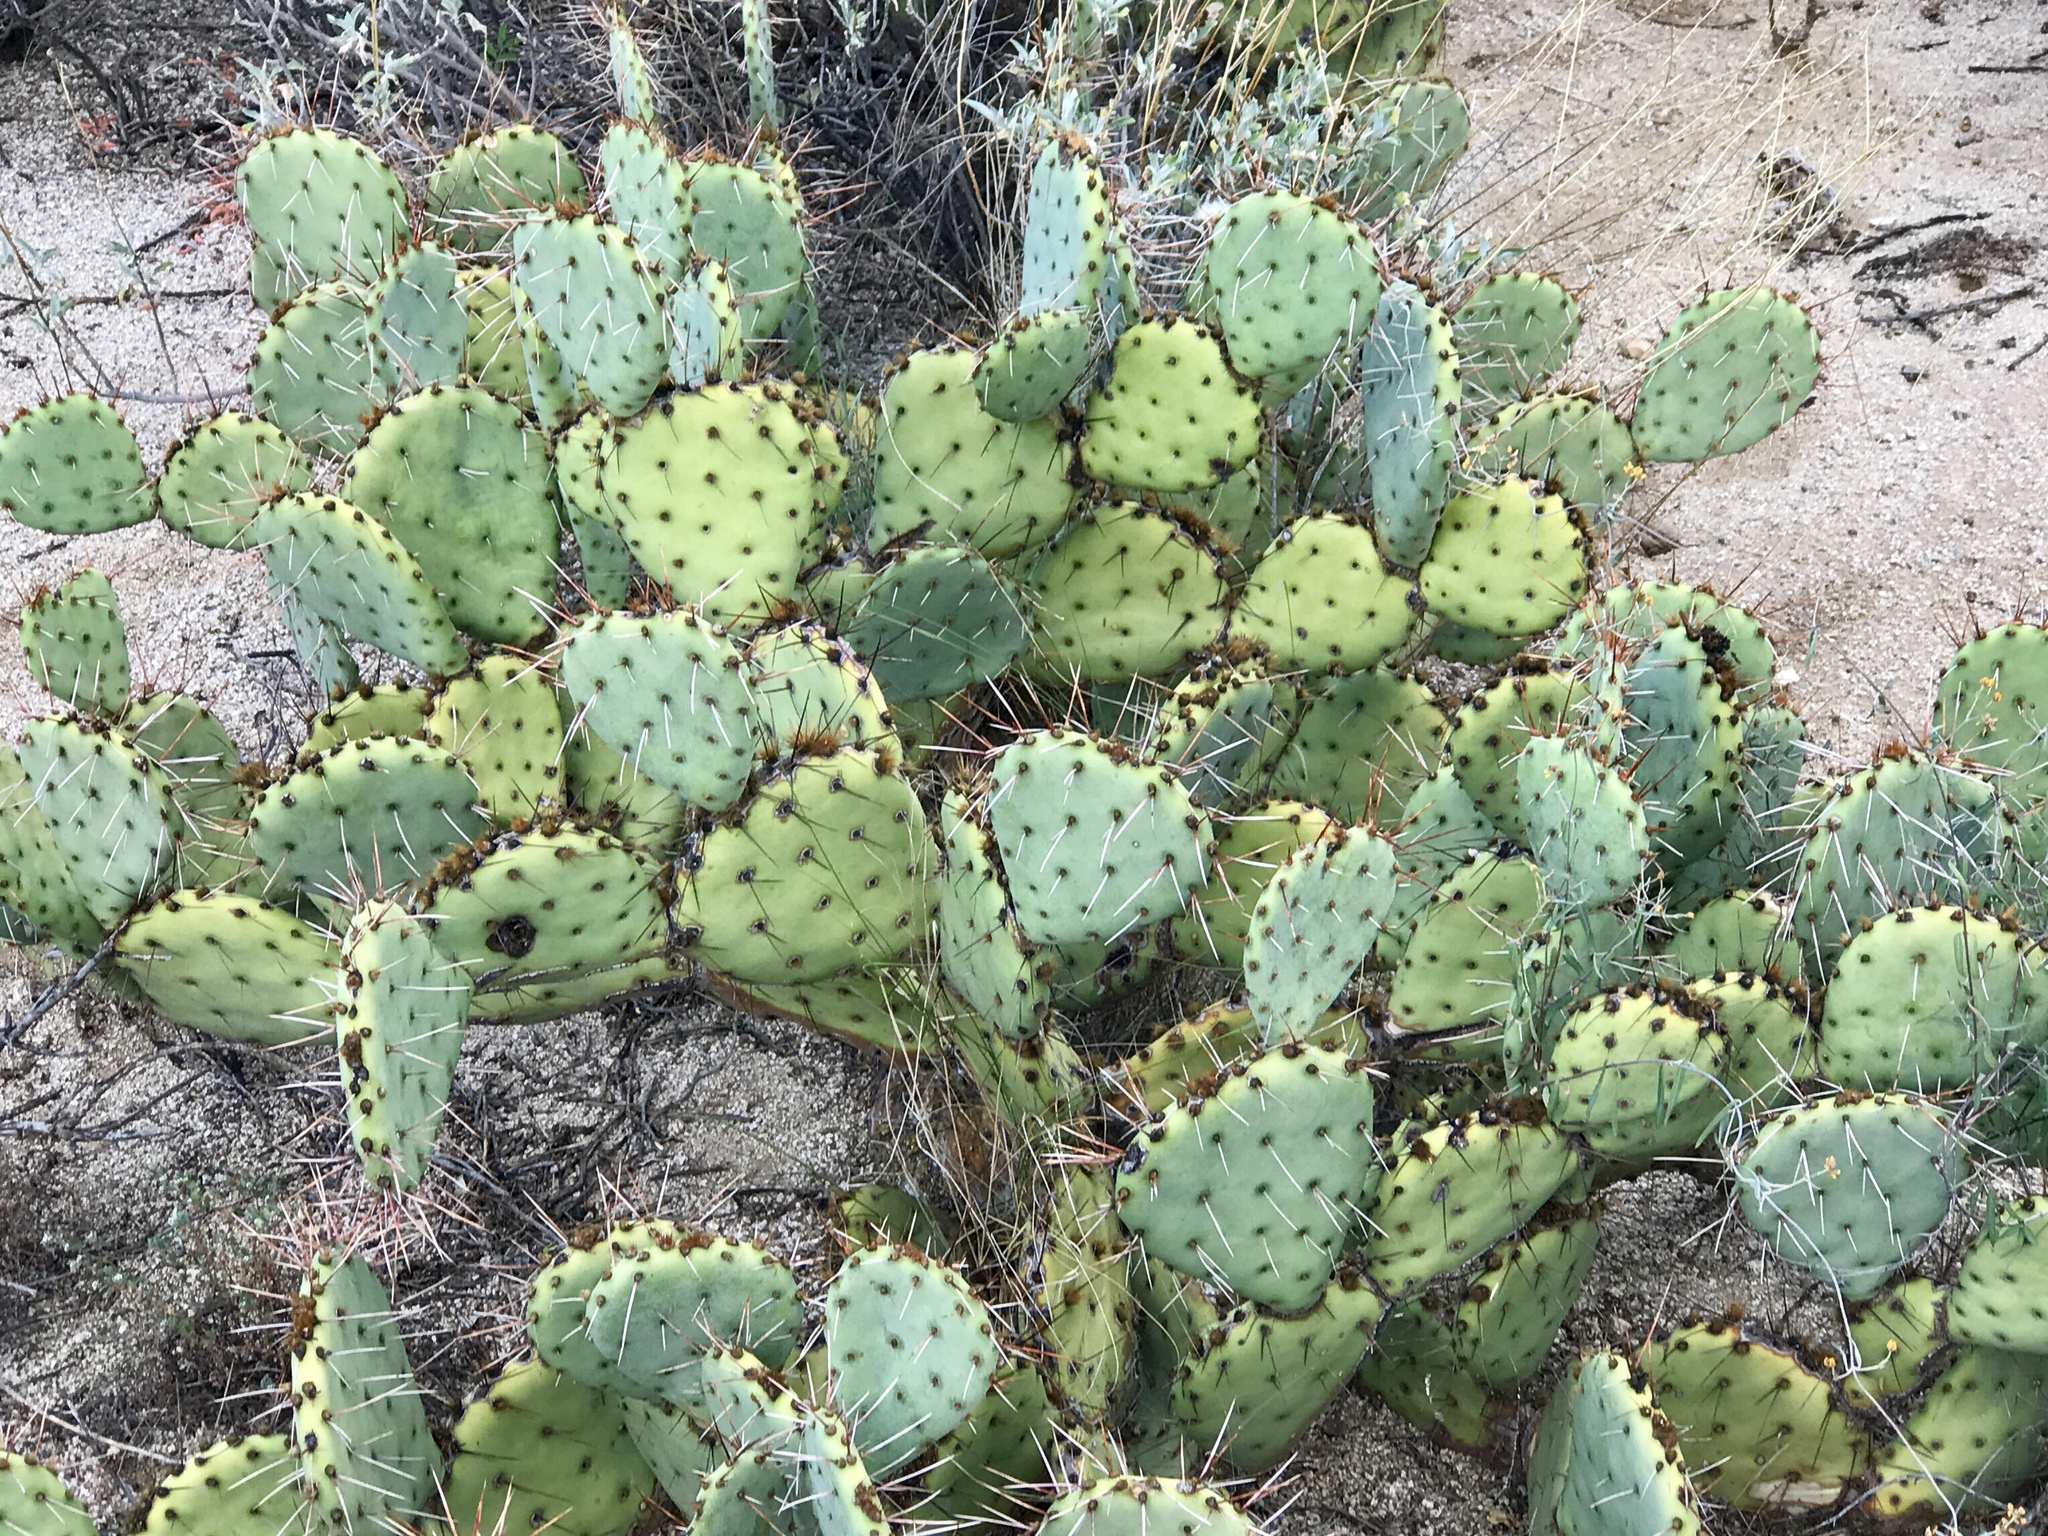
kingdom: Plantae
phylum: Tracheophyta
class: Magnoliopsida
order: Caryophyllales
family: Cactaceae
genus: Opuntia
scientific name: Opuntia phaeacantha
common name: New mexico prickly-pear
